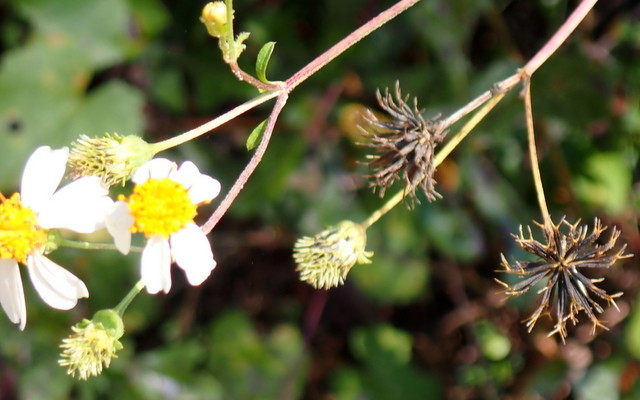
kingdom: Plantae
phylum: Tracheophyta
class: Magnoliopsida
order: Asterales
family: Asteraceae
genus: Bidens
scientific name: Bidens alba
